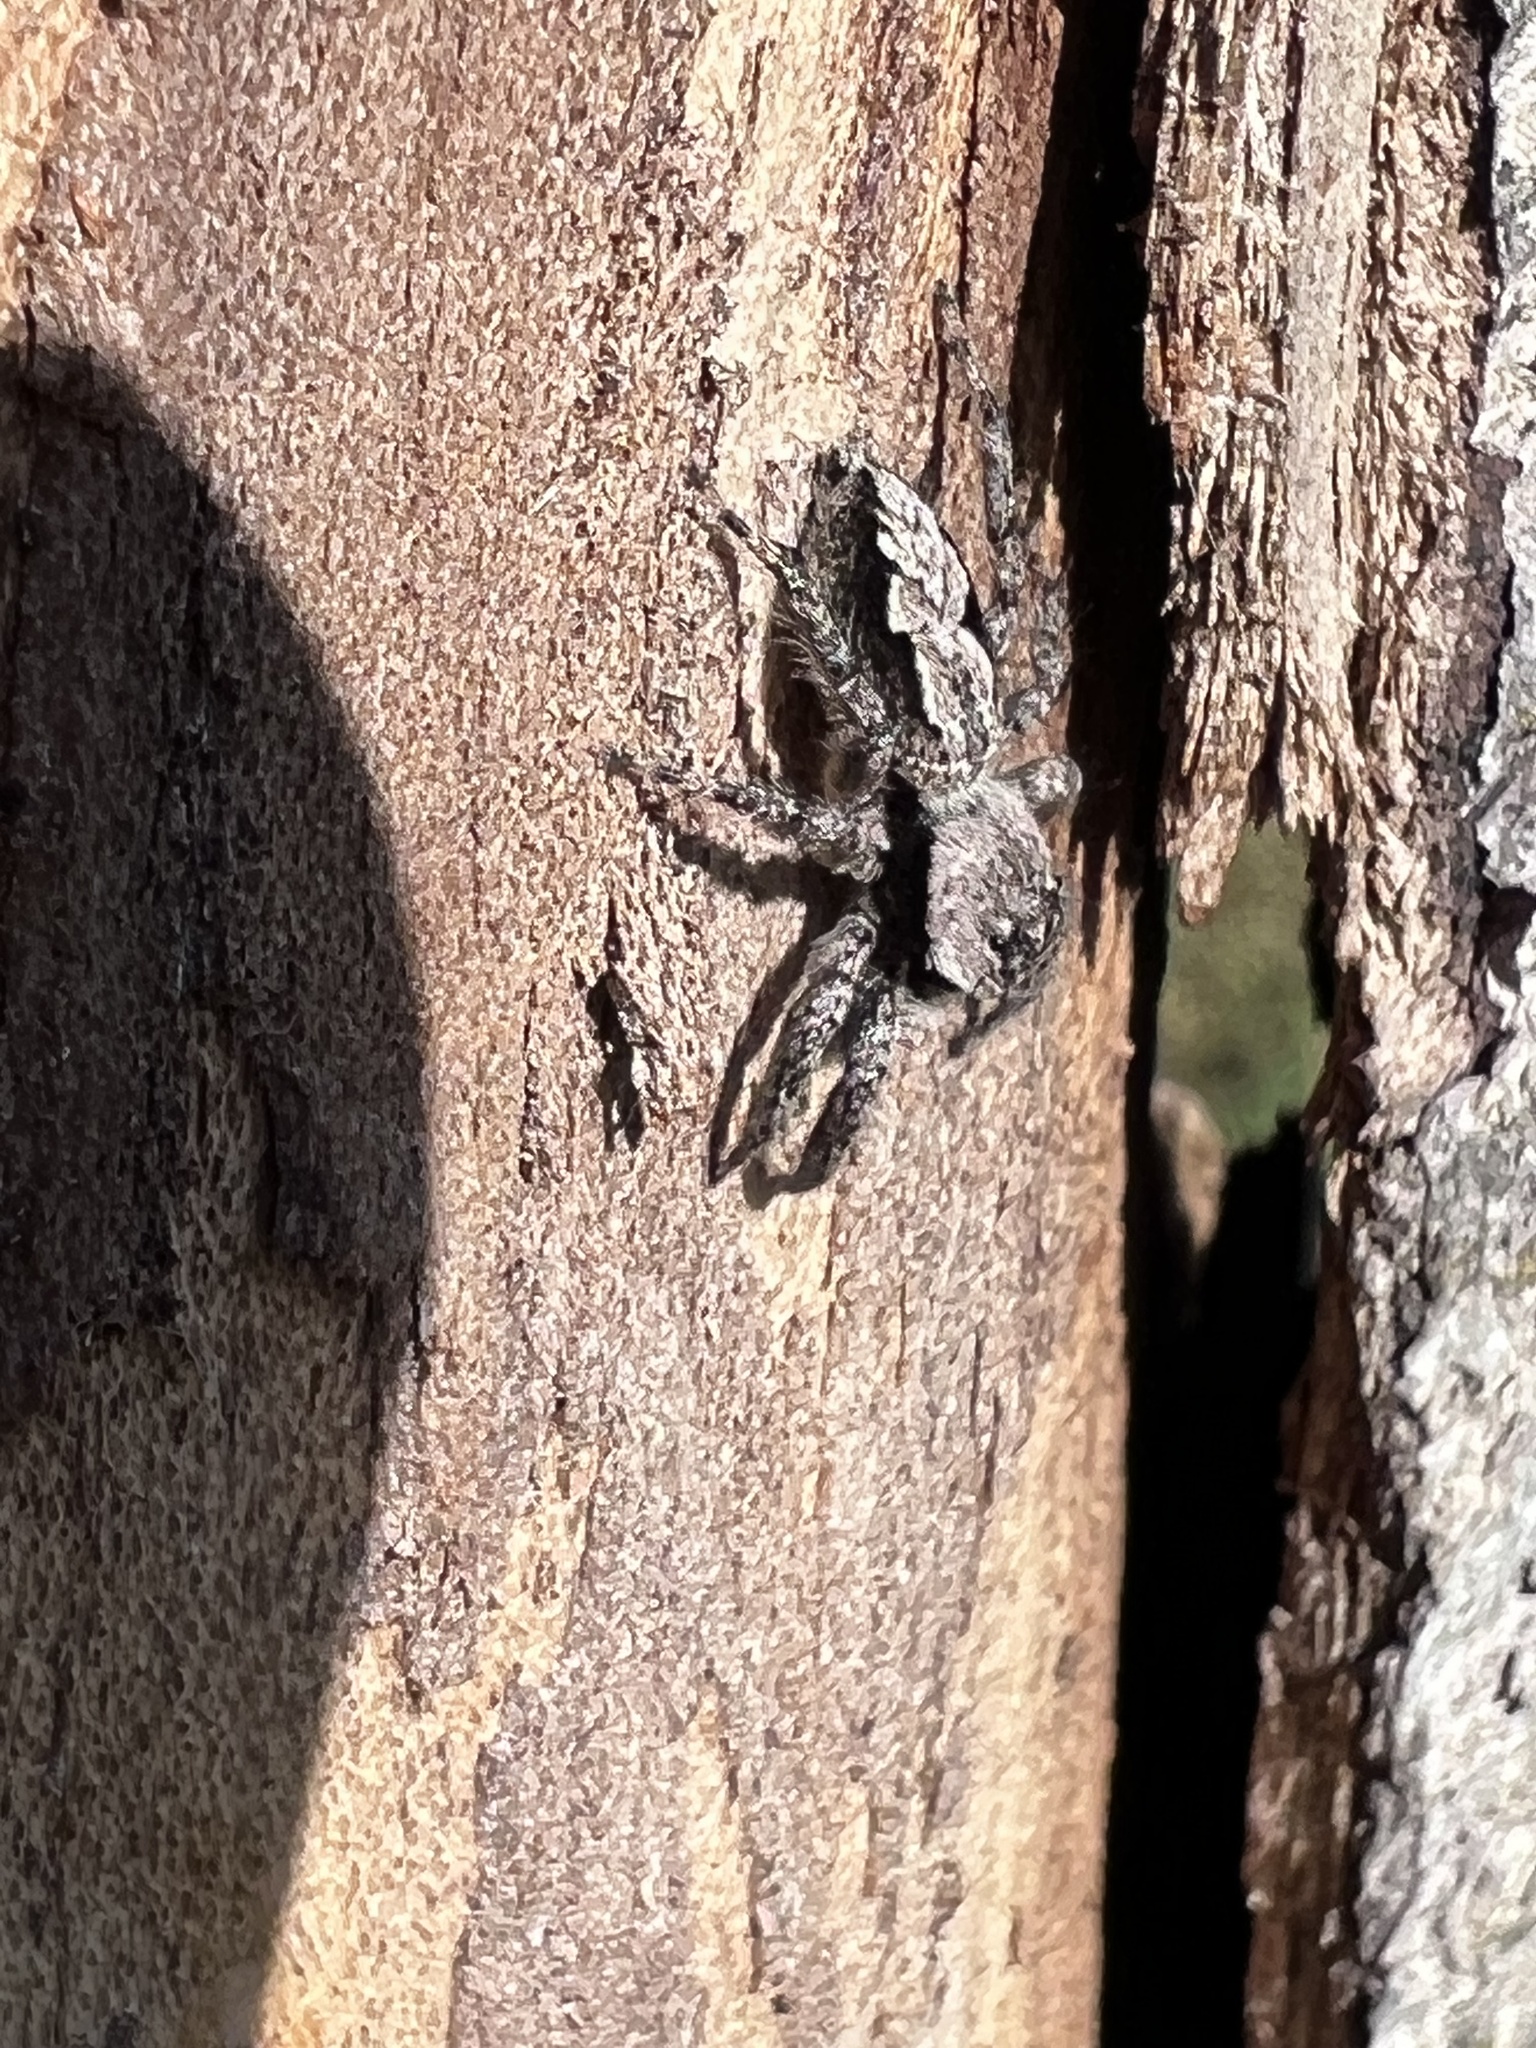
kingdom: Animalia
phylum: Arthropoda
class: Arachnida
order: Araneae
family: Salticidae
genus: Platycryptus
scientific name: Platycryptus undatus
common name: Tan jumping spider
